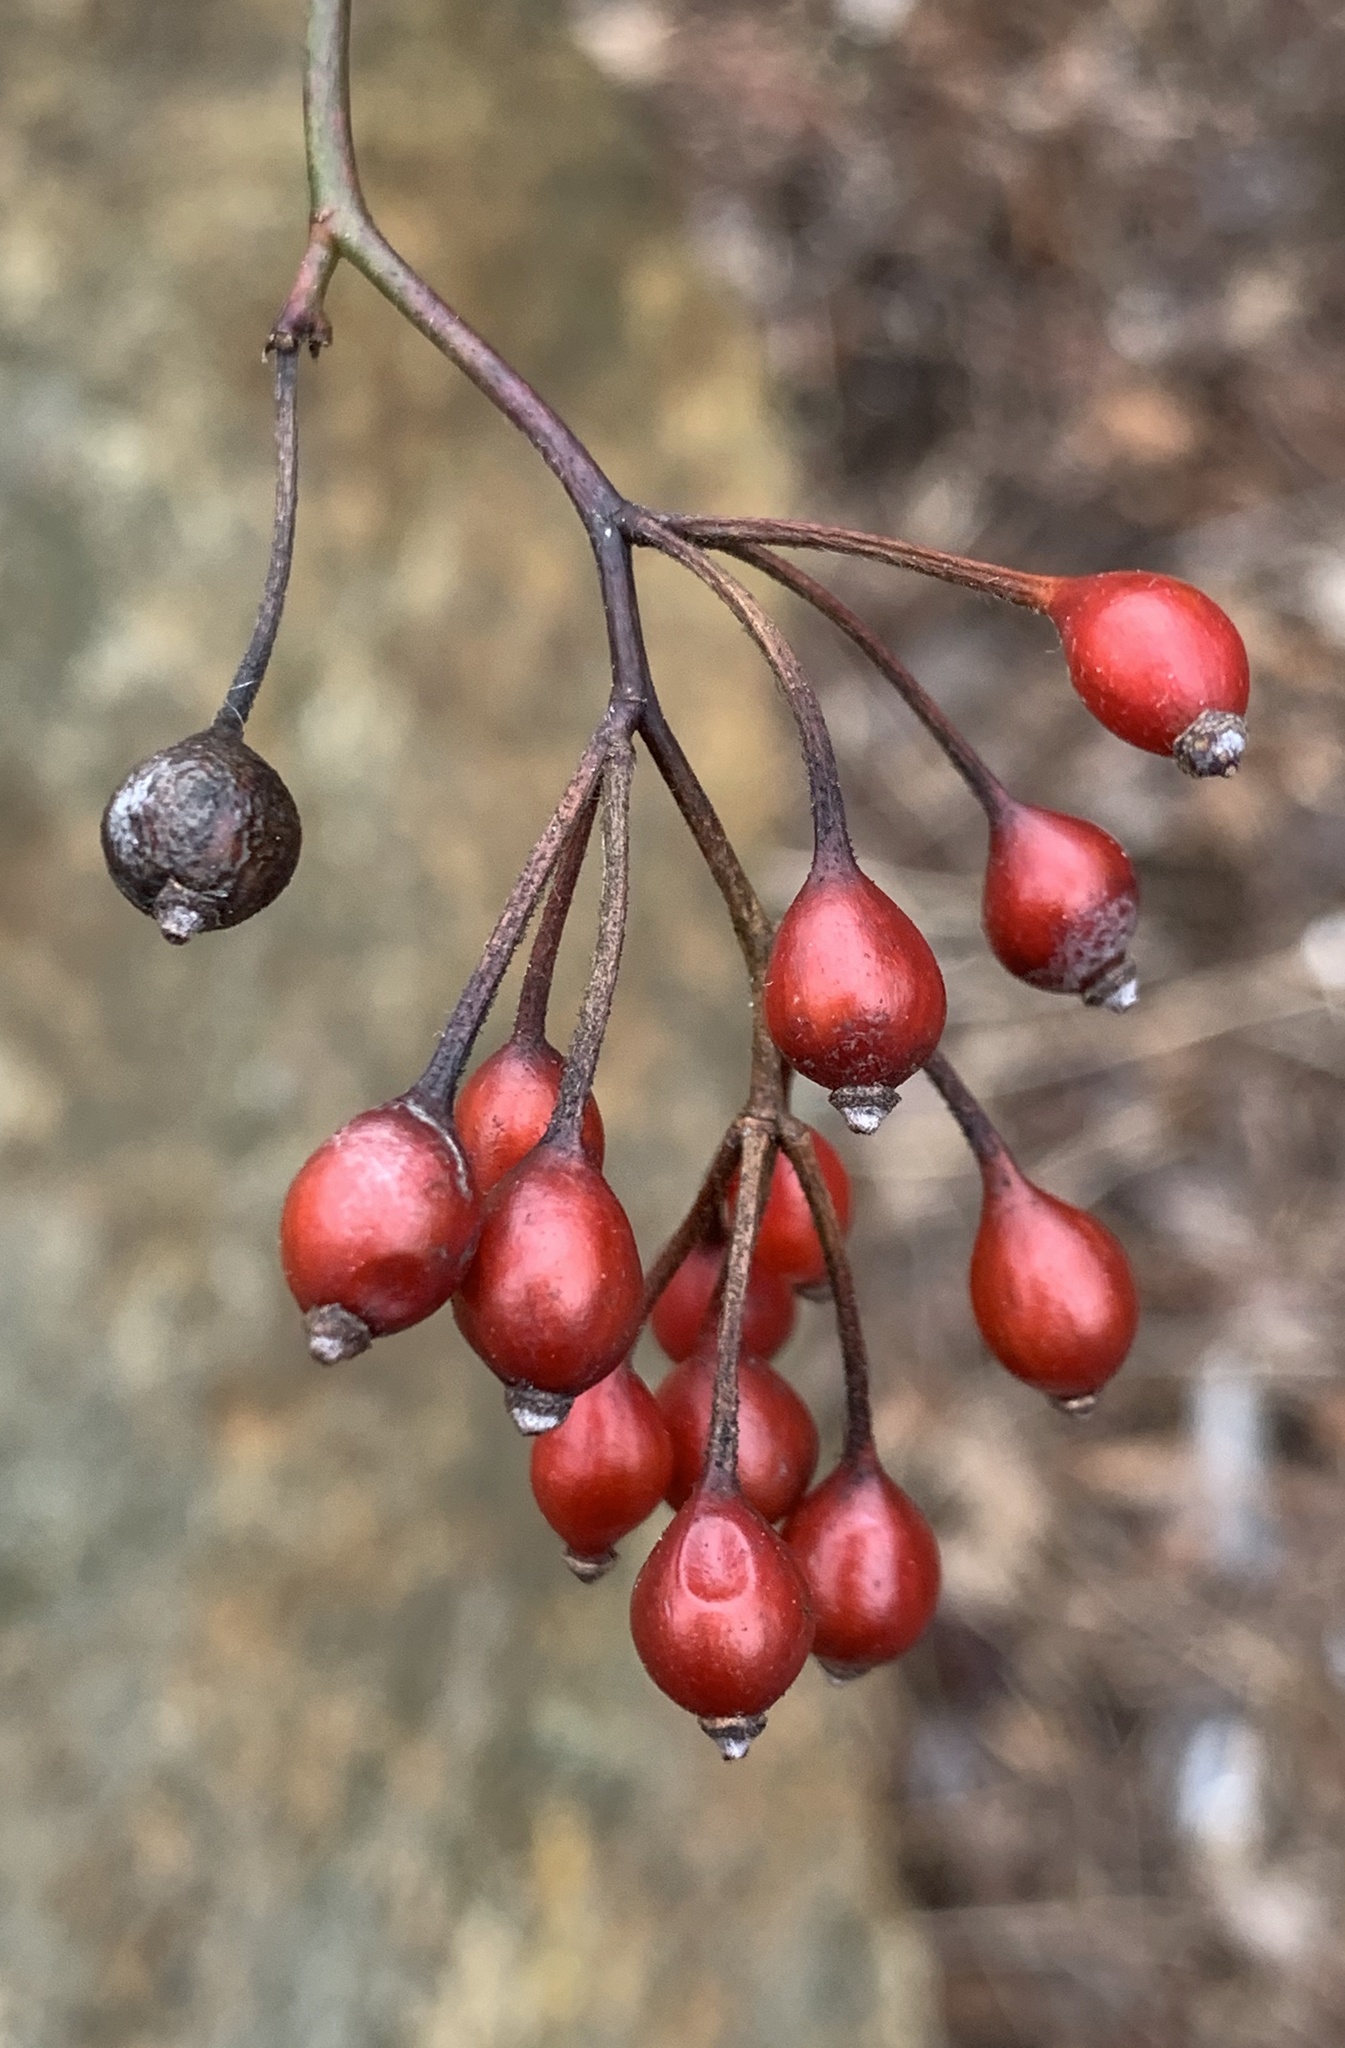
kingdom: Plantae
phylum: Tracheophyta
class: Magnoliopsida
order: Rosales
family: Rosaceae
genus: Rosa
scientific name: Rosa multiflora
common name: Multiflora rose
